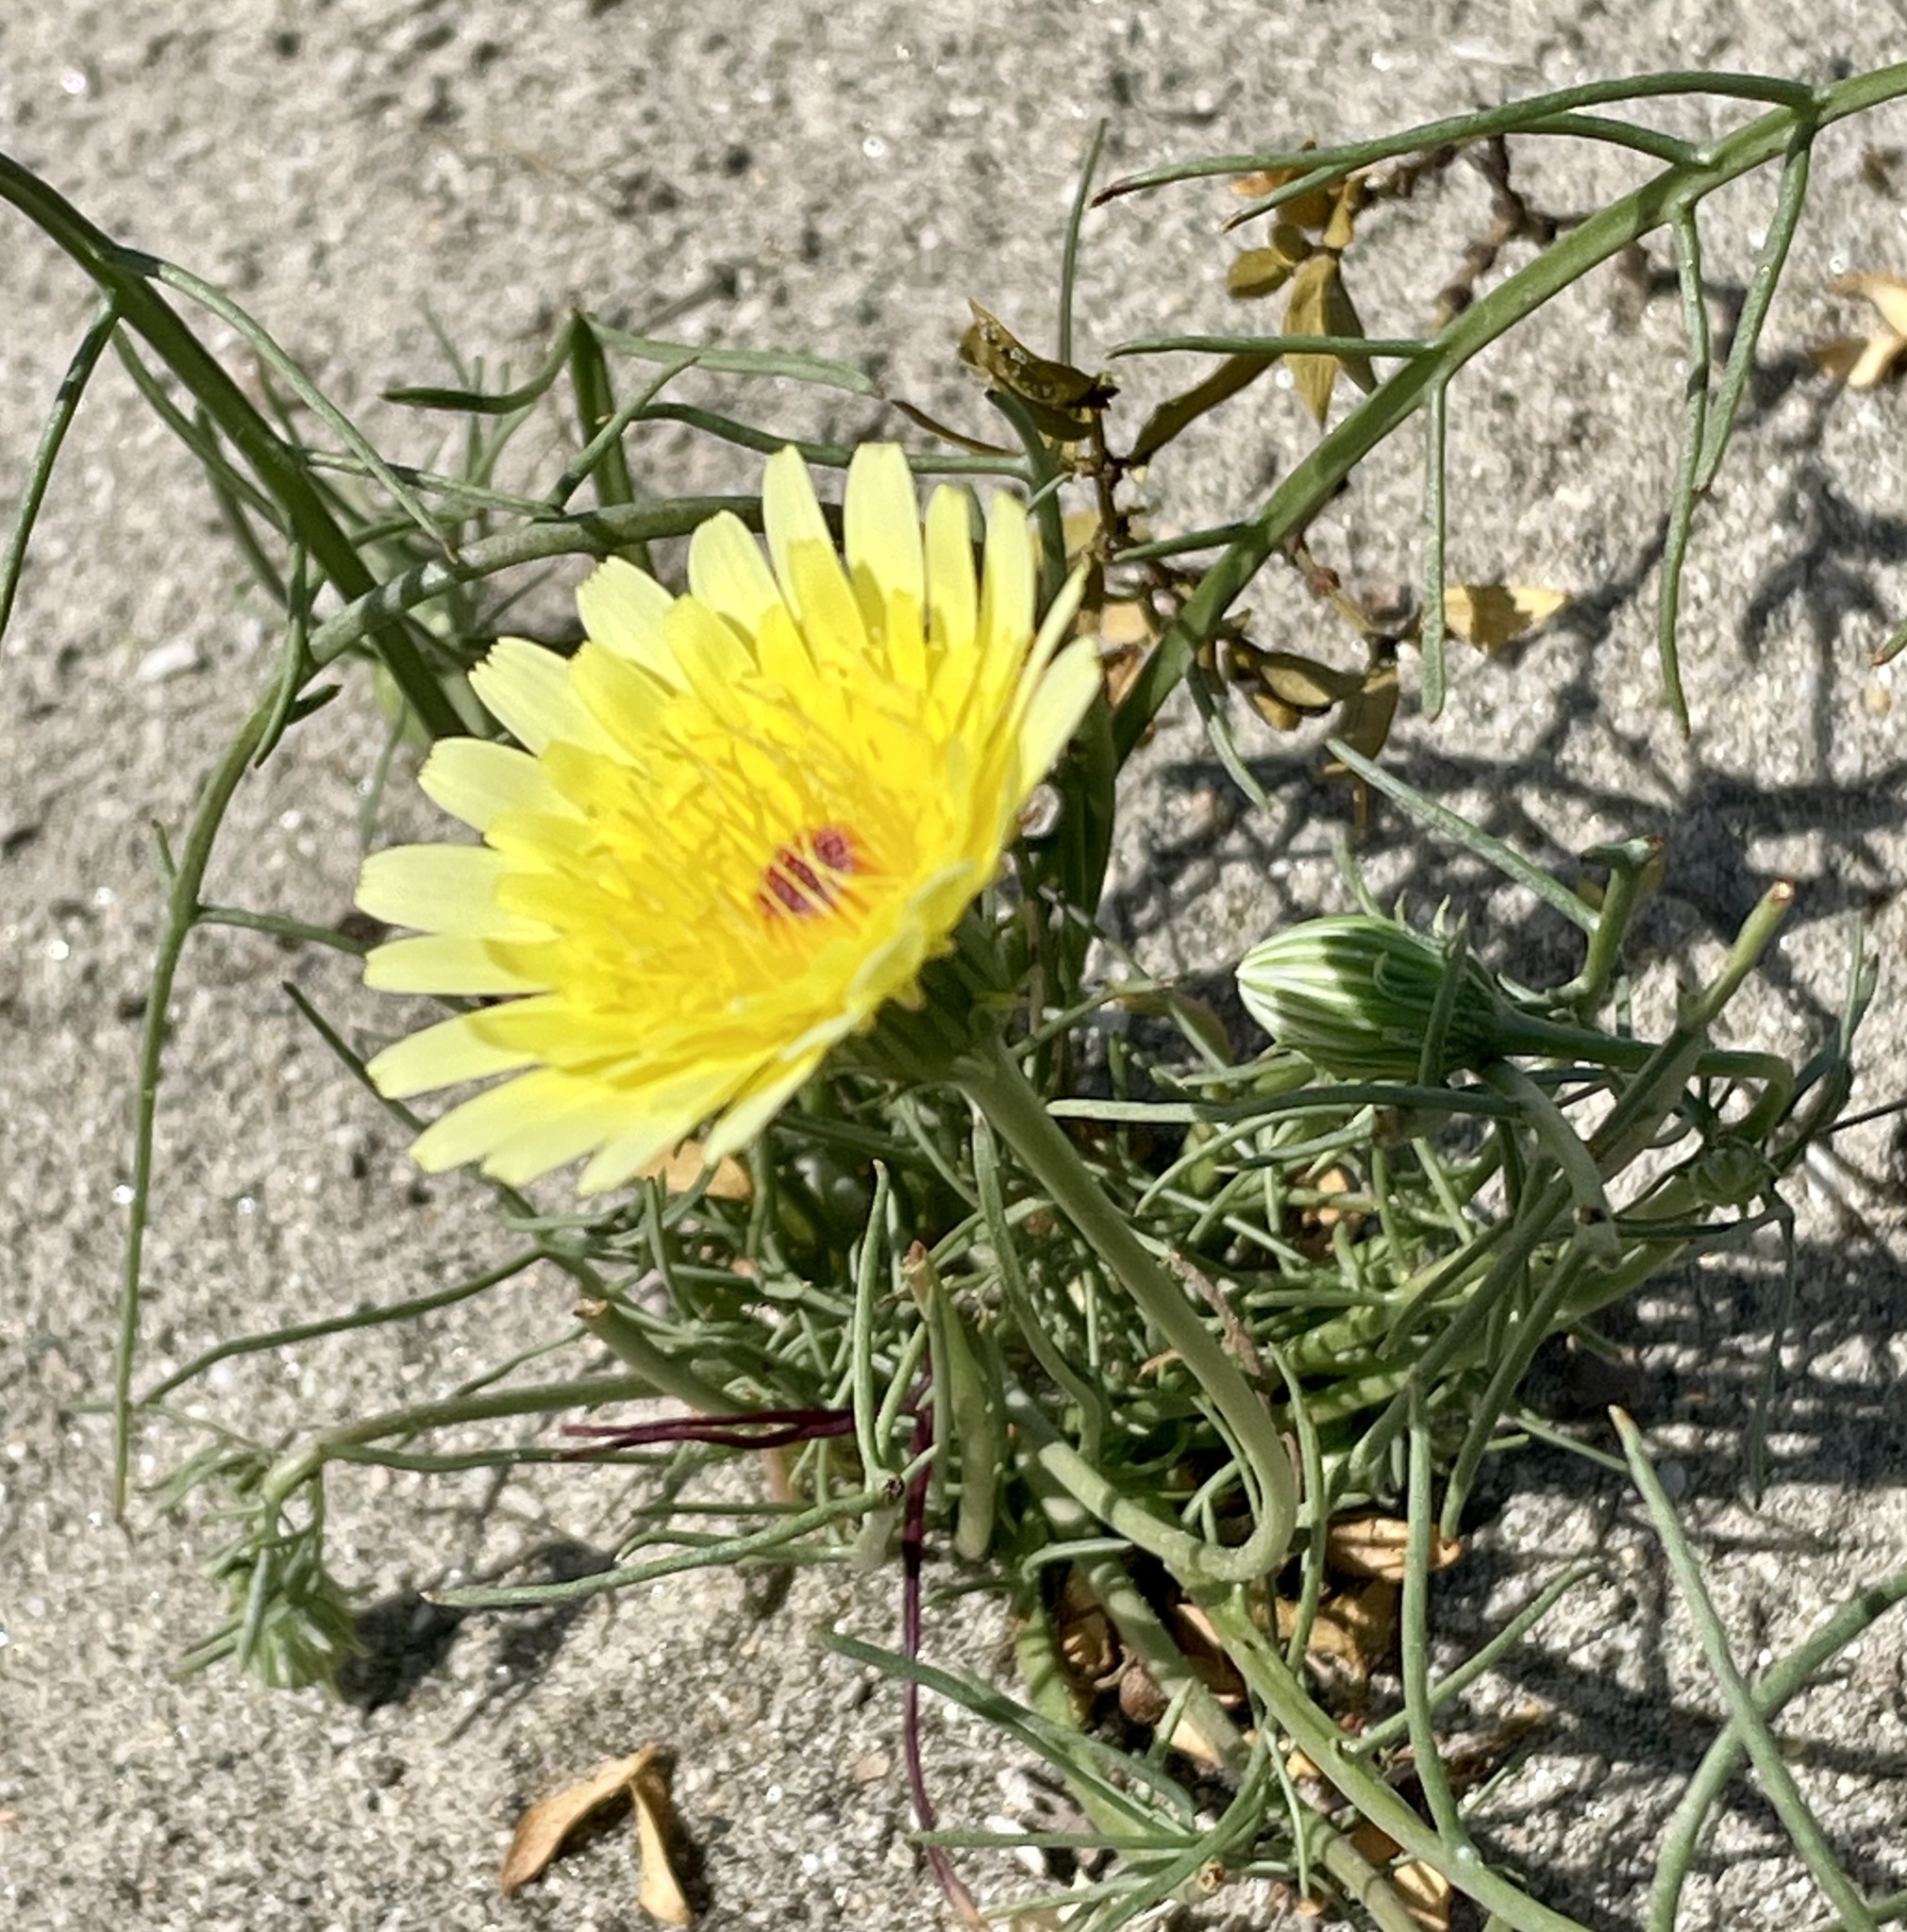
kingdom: Plantae
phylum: Tracheophyta
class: Magnoliopsida
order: Asterales
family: Asteraceae
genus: Malacothrix
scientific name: Malacothrix glabrata
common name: Smooth desert-dandelion
